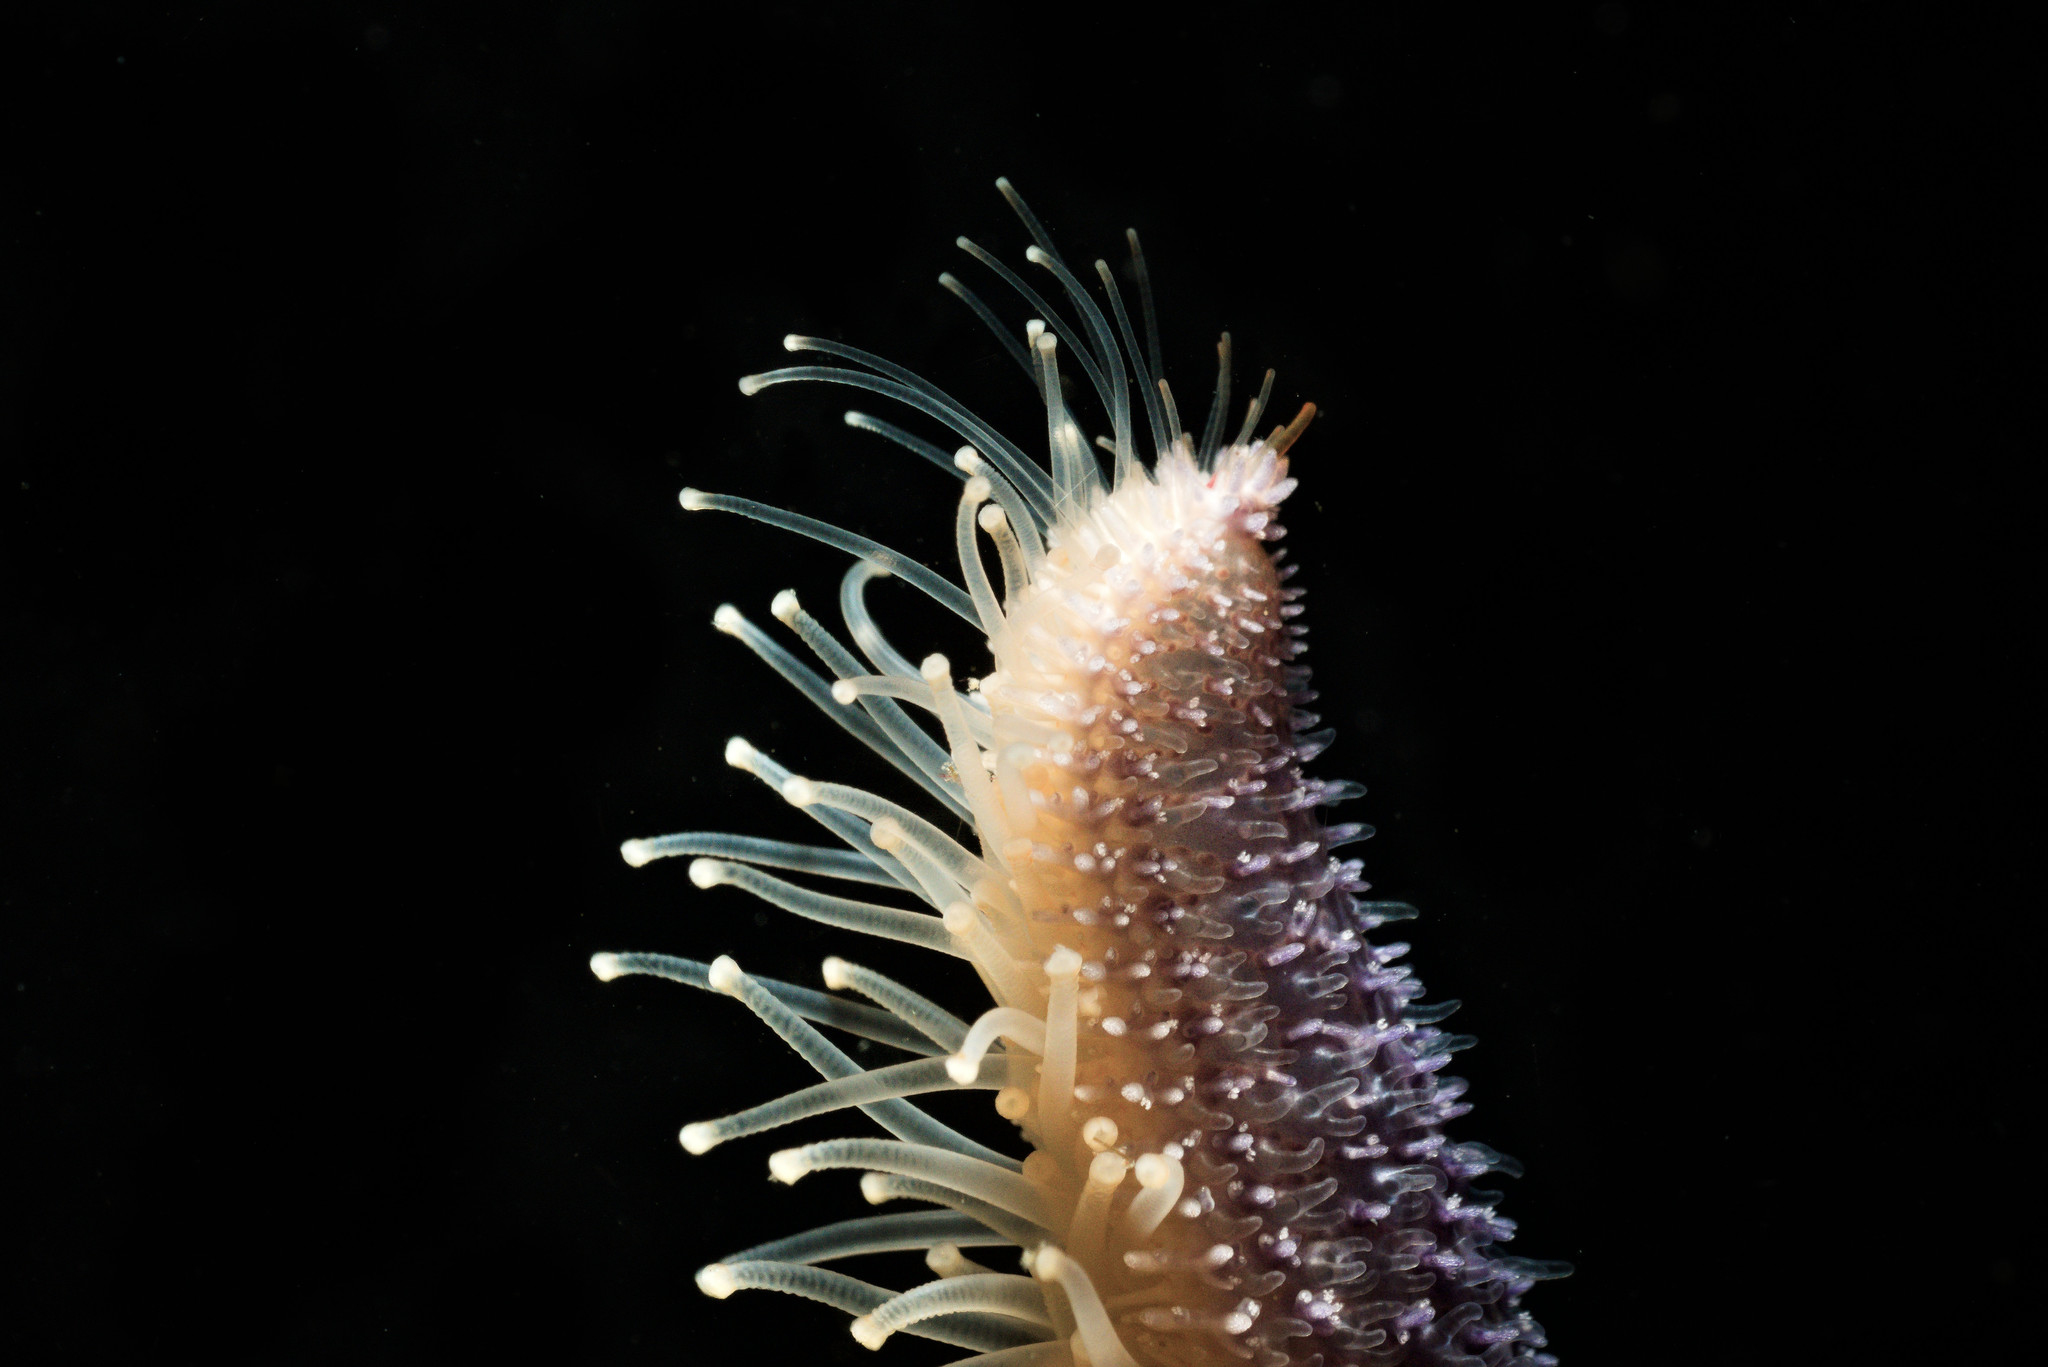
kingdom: Animalia
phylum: Echinodermata
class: Asteroidea
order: Forcipulatida
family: Asteriidae
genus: Asterias
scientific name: Asterias rubens
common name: Common starfish
